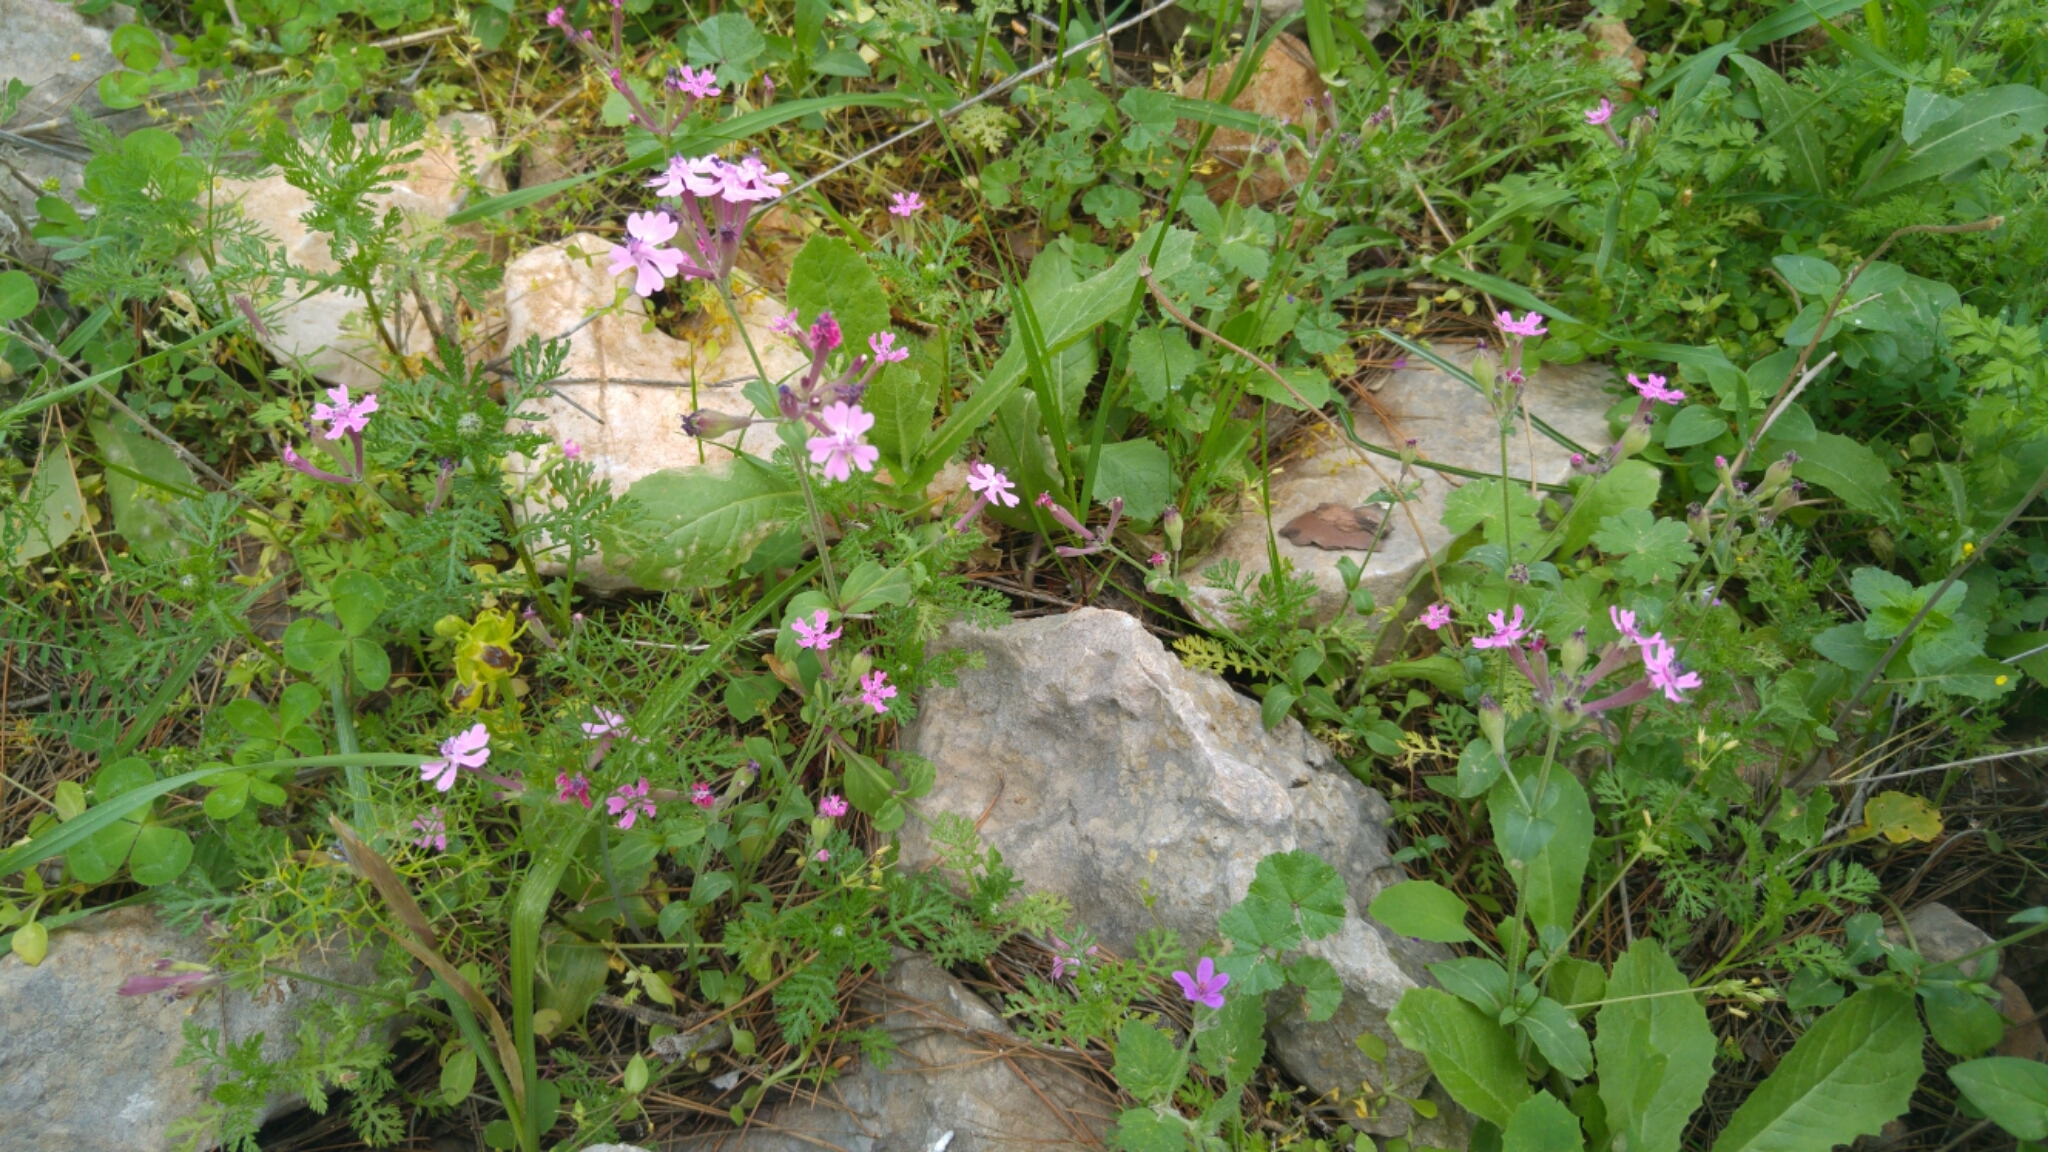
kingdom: Plantae
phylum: Tracheophyta
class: Magnoliopsida
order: Caryophyllales
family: Caryophyllaceae
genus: Silene
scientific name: Silene aegyptiaca
